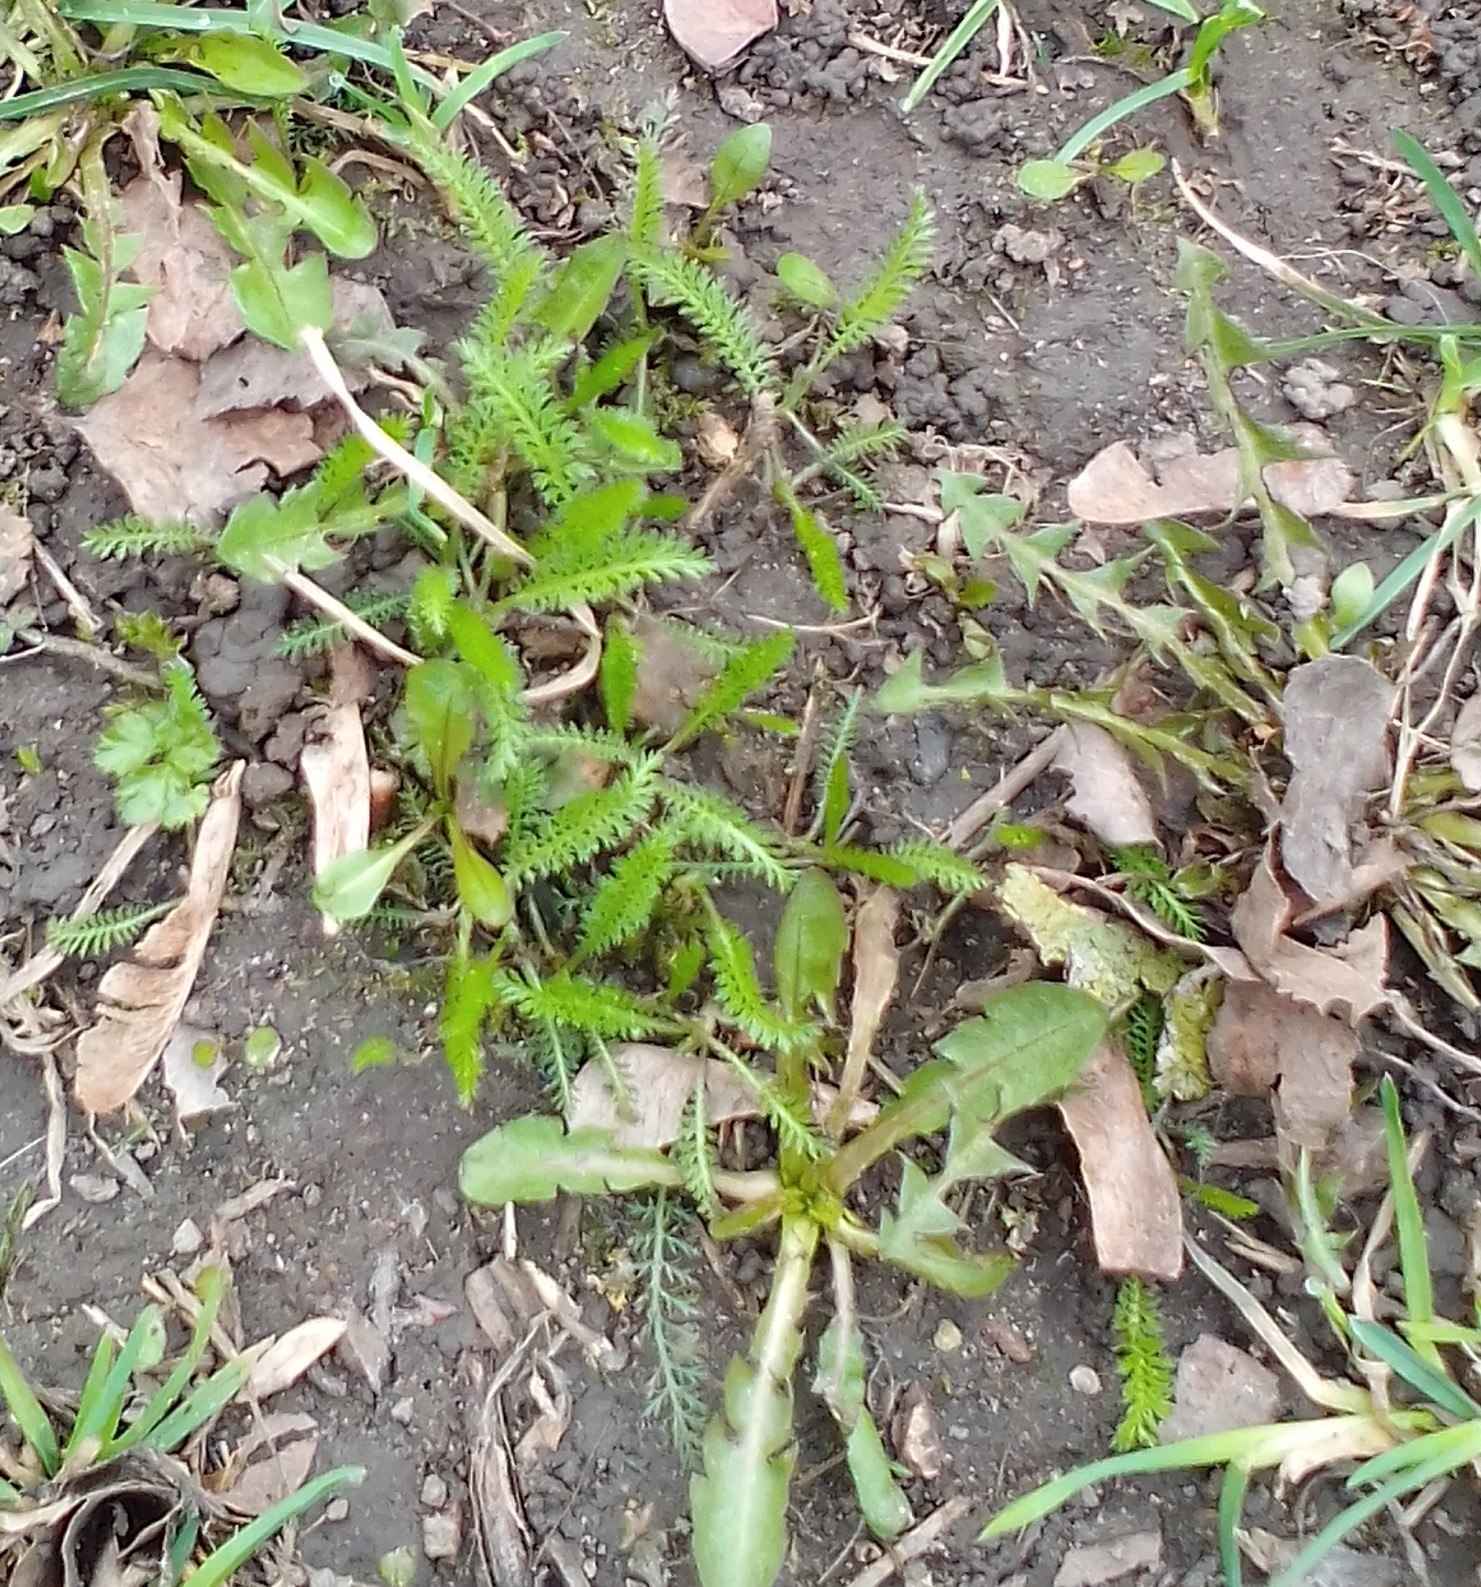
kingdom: Plantae
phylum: Tracheophyta
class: Magnoliopsida
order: Asterales
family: Asteraceae
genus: Achillea
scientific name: Achillea millefolium
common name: Yarrow
